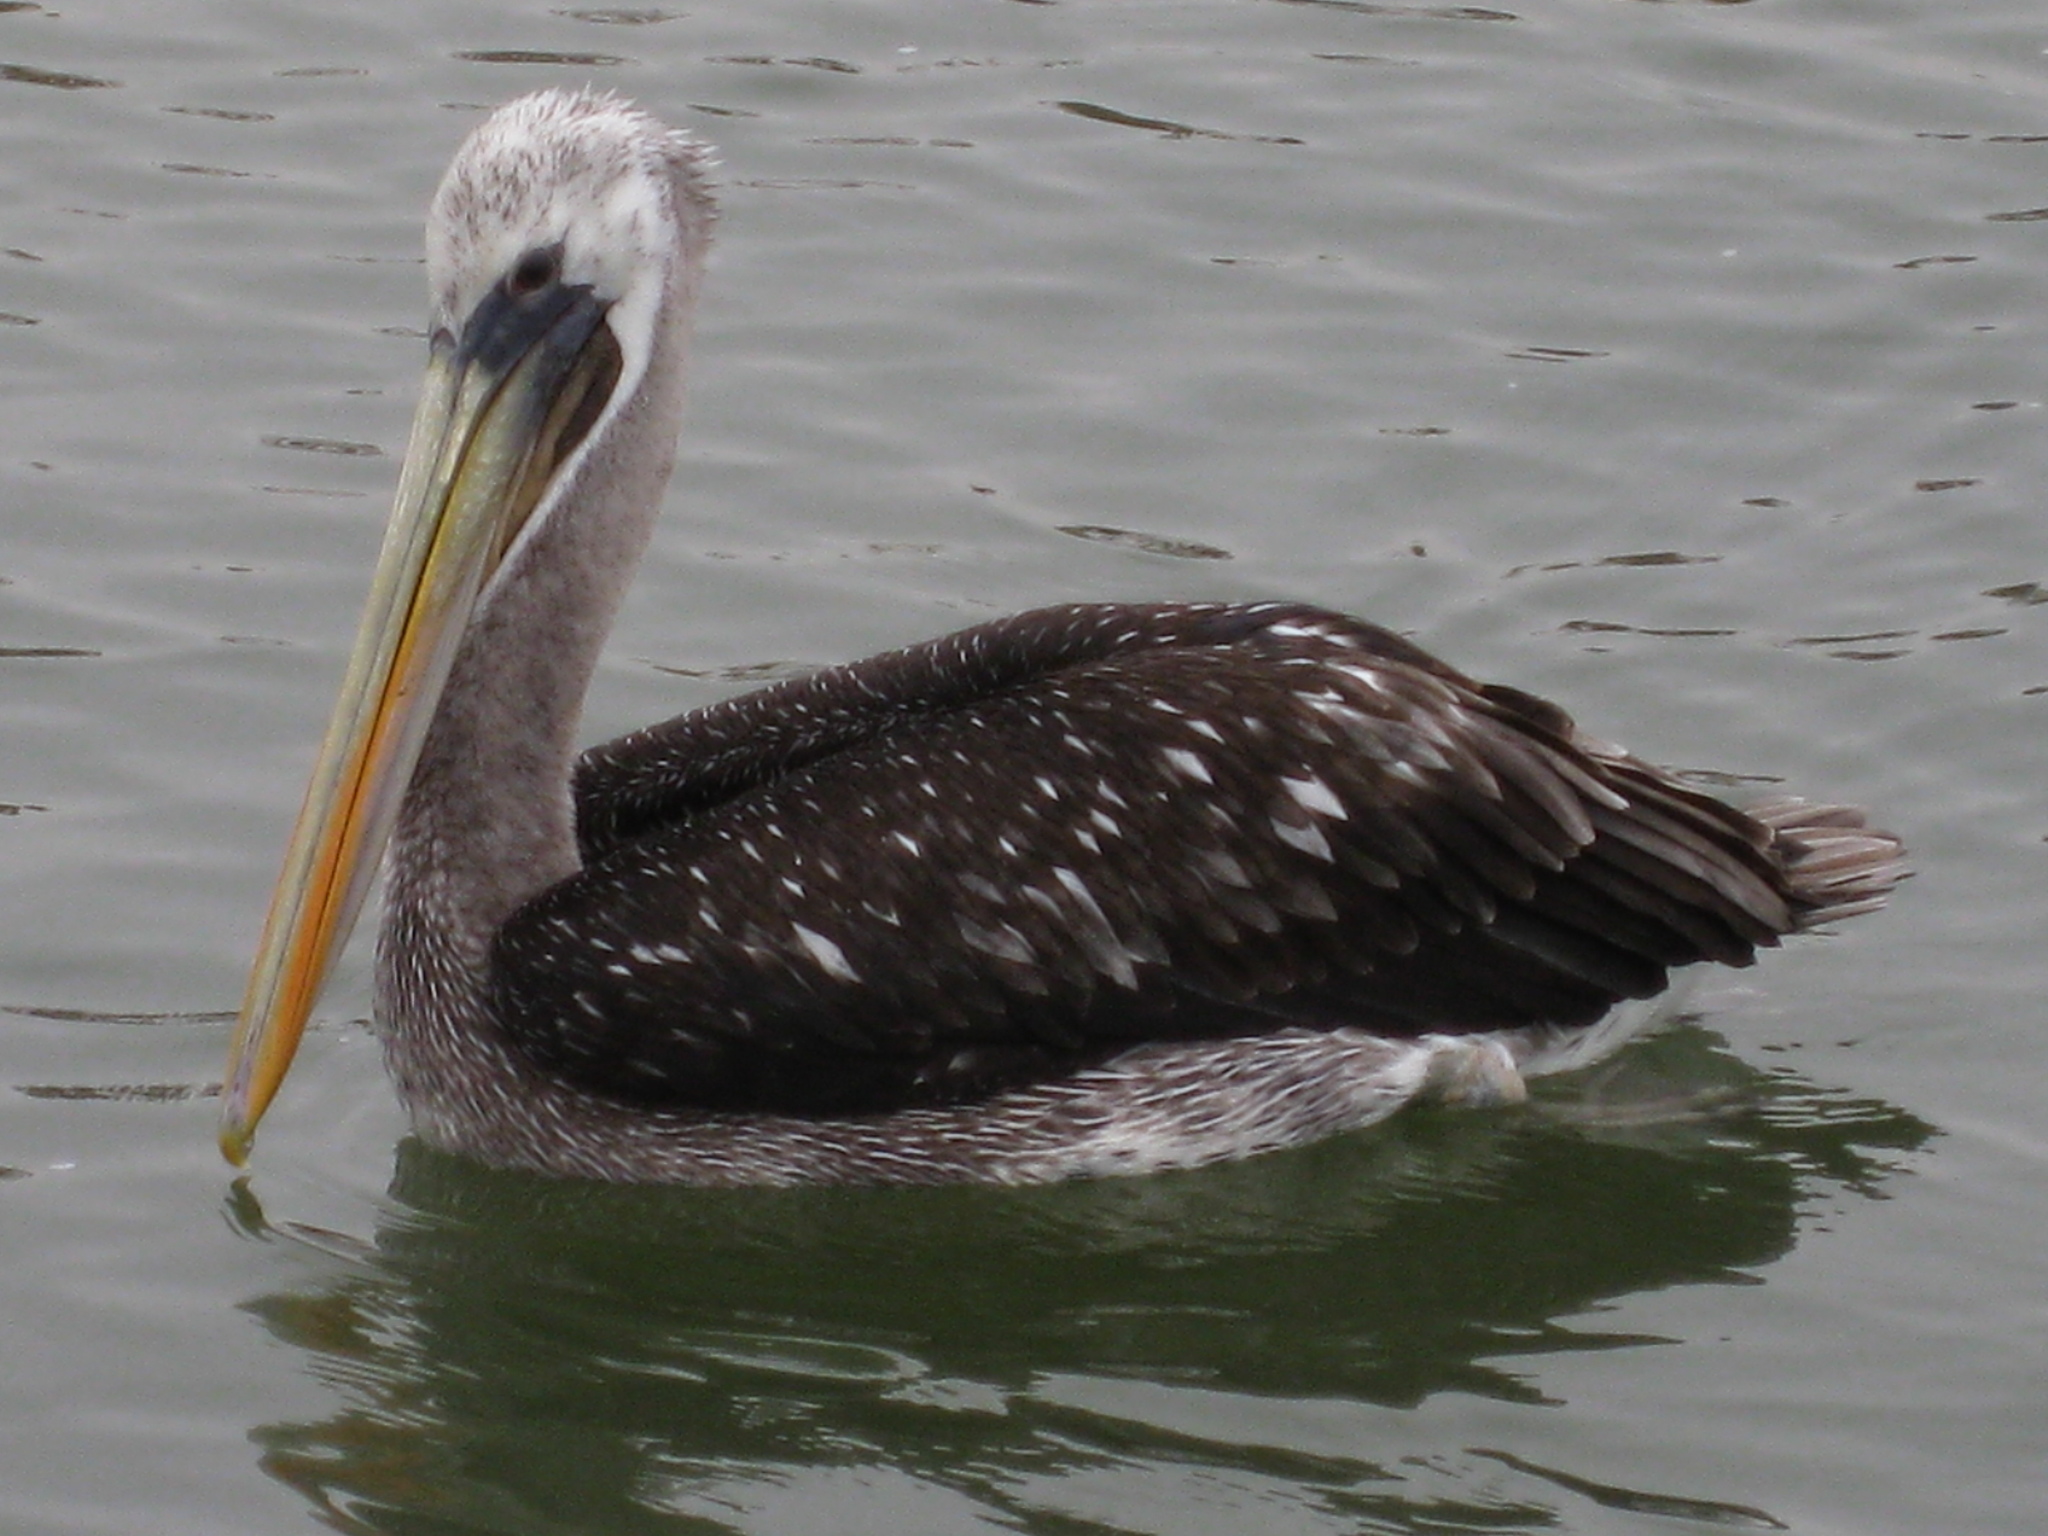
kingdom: Animalia
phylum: Chordata
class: Aves
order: Pelecaniformes
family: Pelecanidae
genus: Pelecanus
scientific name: Pelecanus thagus
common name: Peruvian pelican
